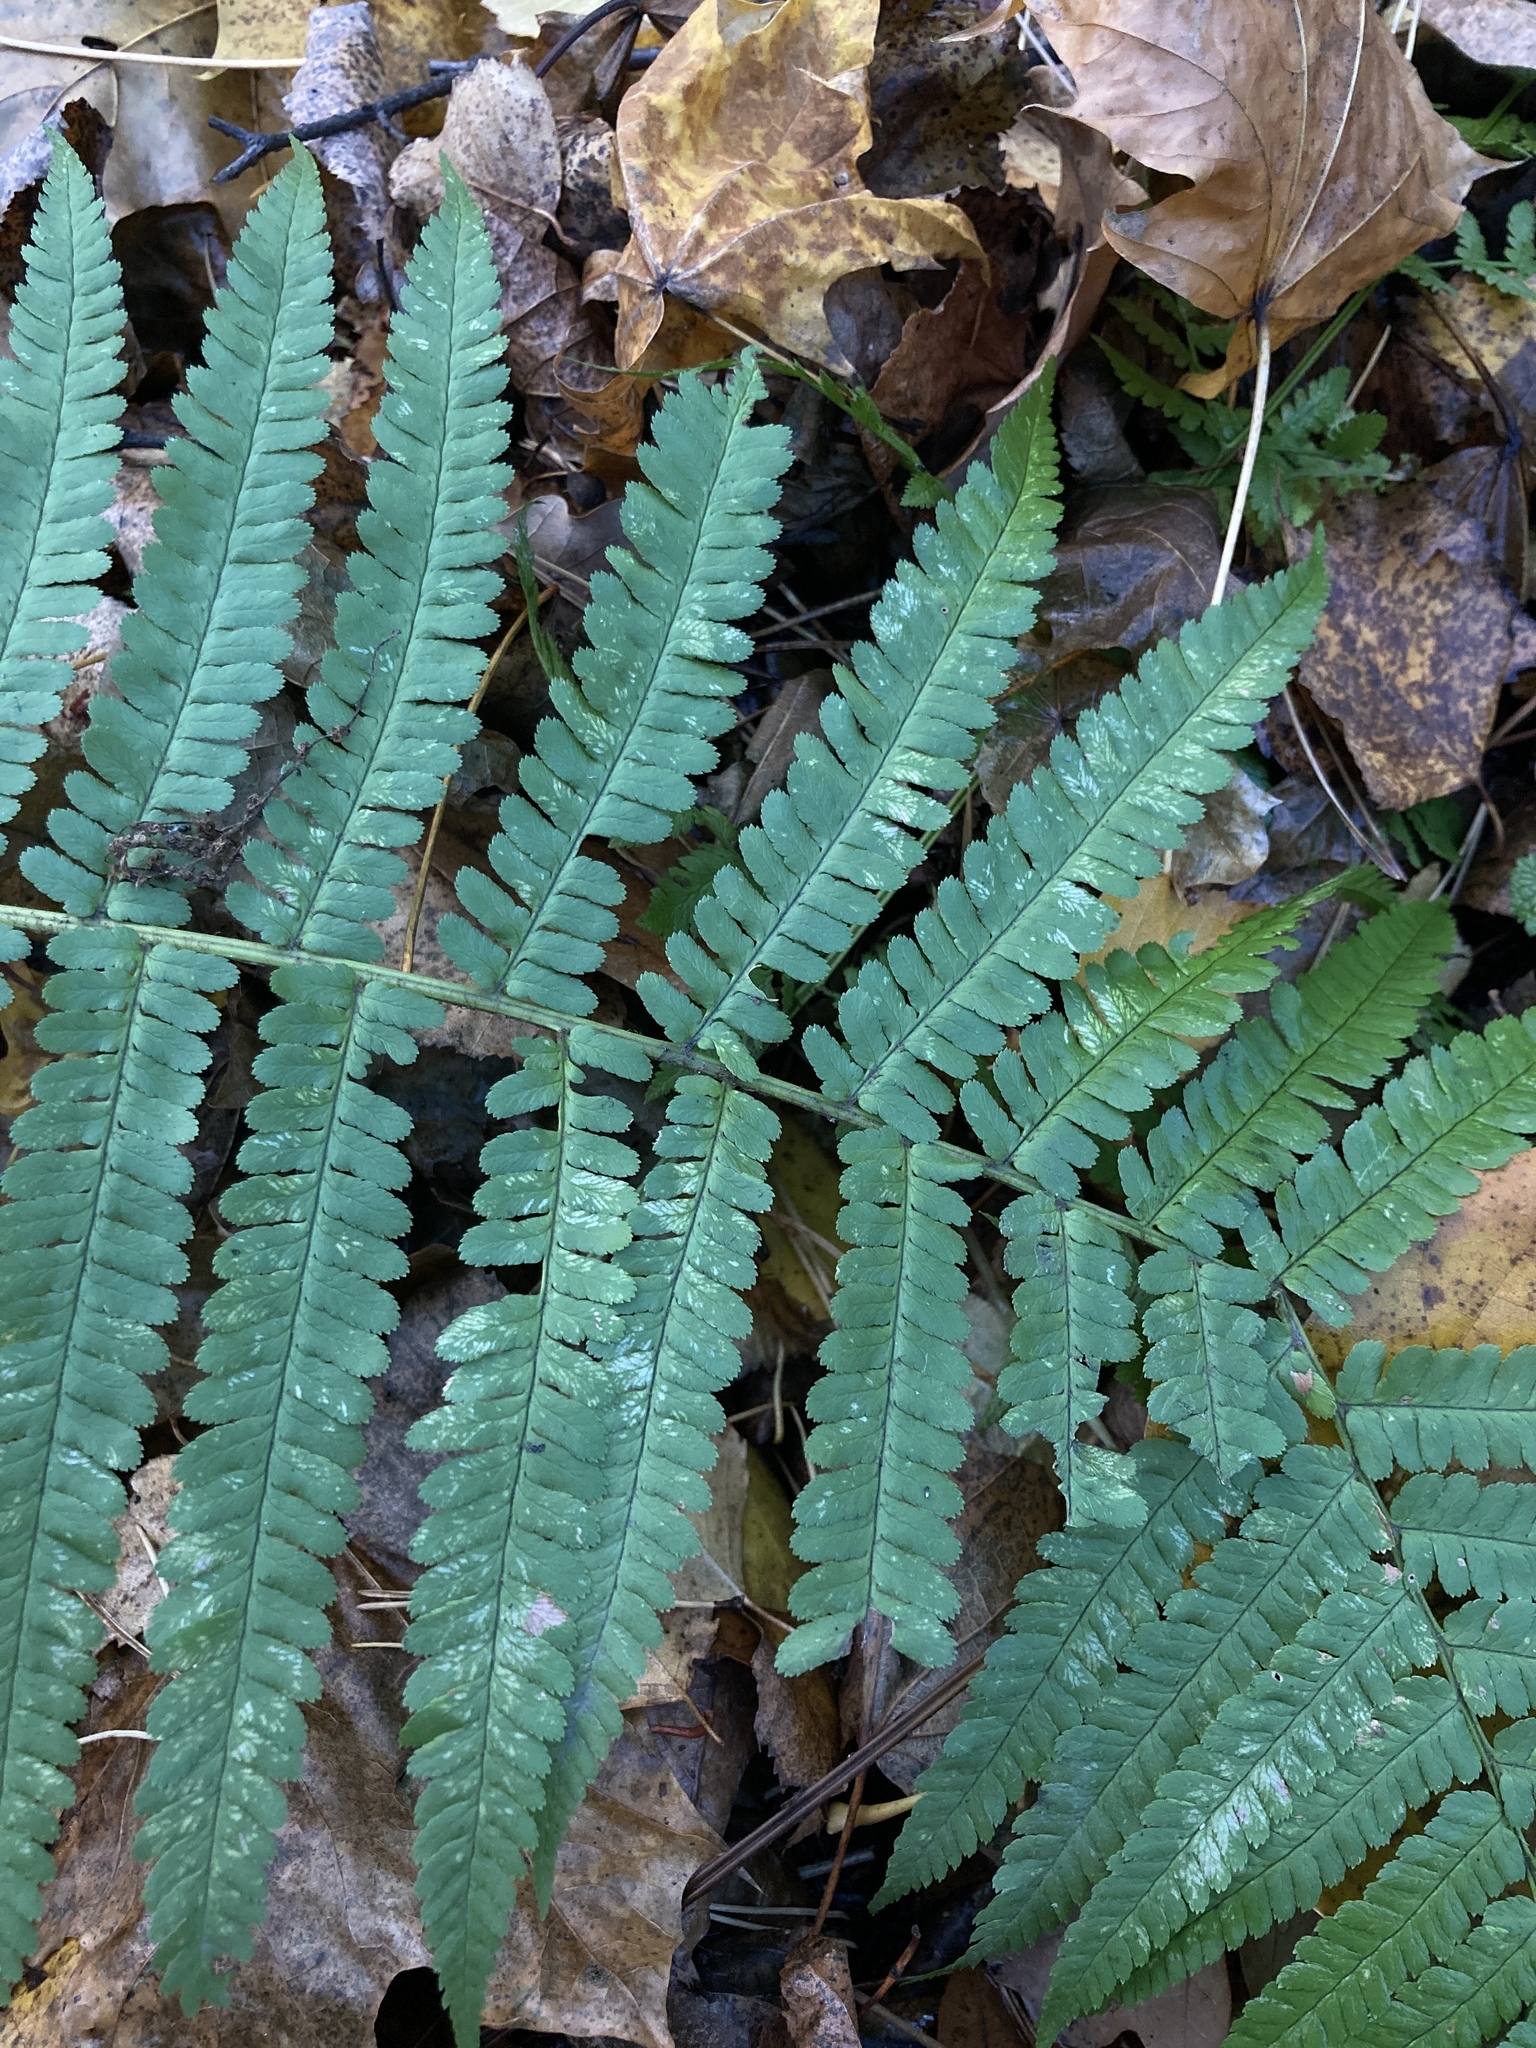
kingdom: Plantae
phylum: Tracheophyta
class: Polypodiopsida
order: Polypodiales
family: Dryopteridaceae
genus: Dryopteris
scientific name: Dryopteris filix-mas
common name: Male fern
